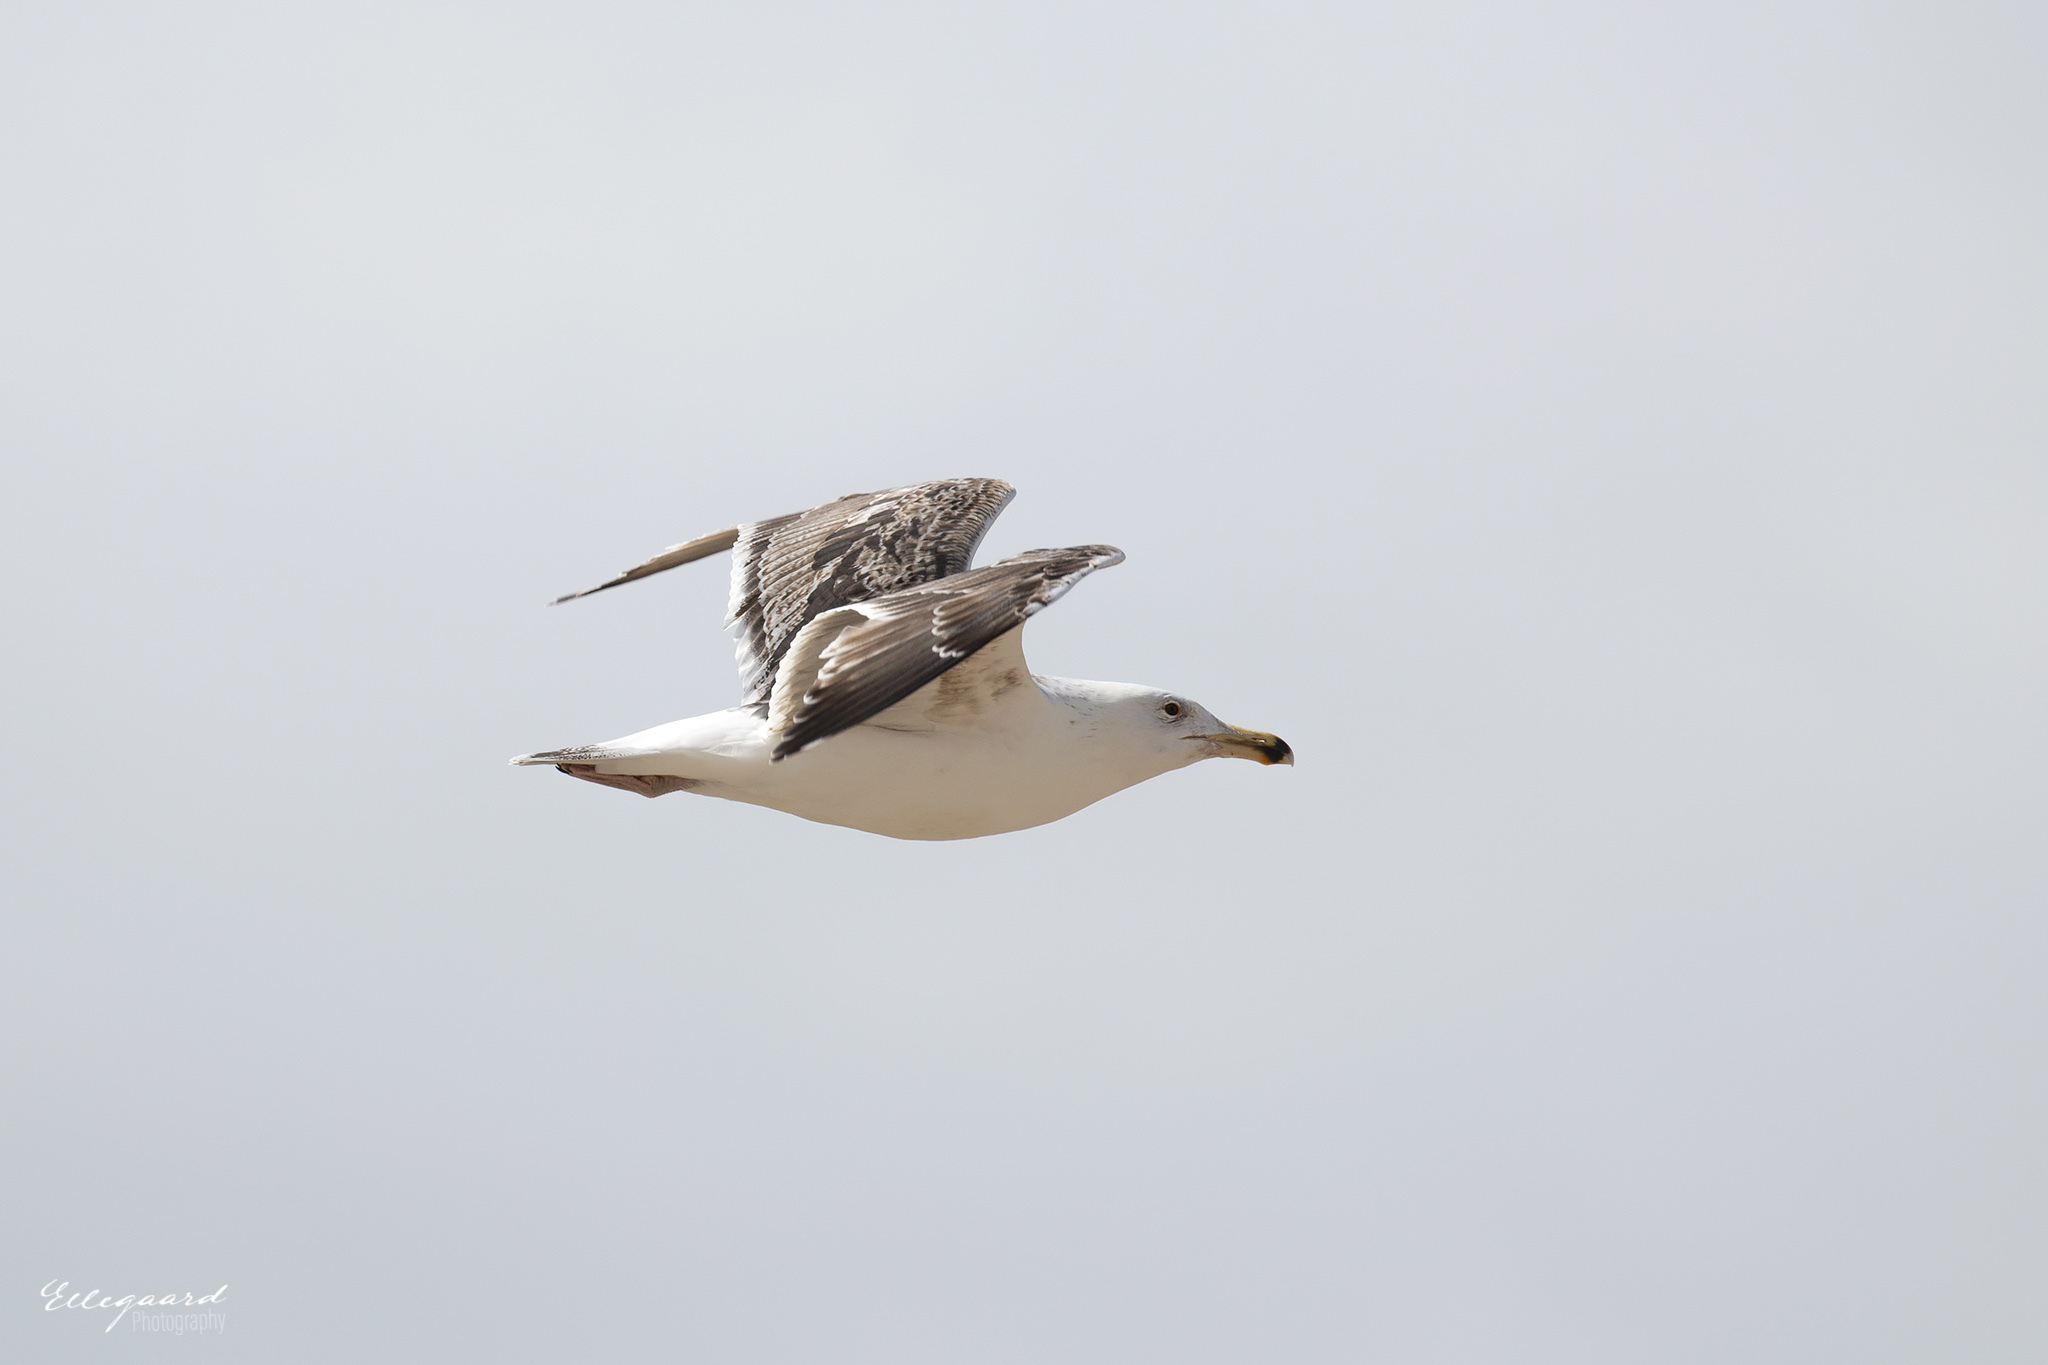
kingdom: Animalia
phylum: Chordata
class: Aves
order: Charadriiformes
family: Laridae
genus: Larus
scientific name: Larus marinus
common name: Great black-backed gull
